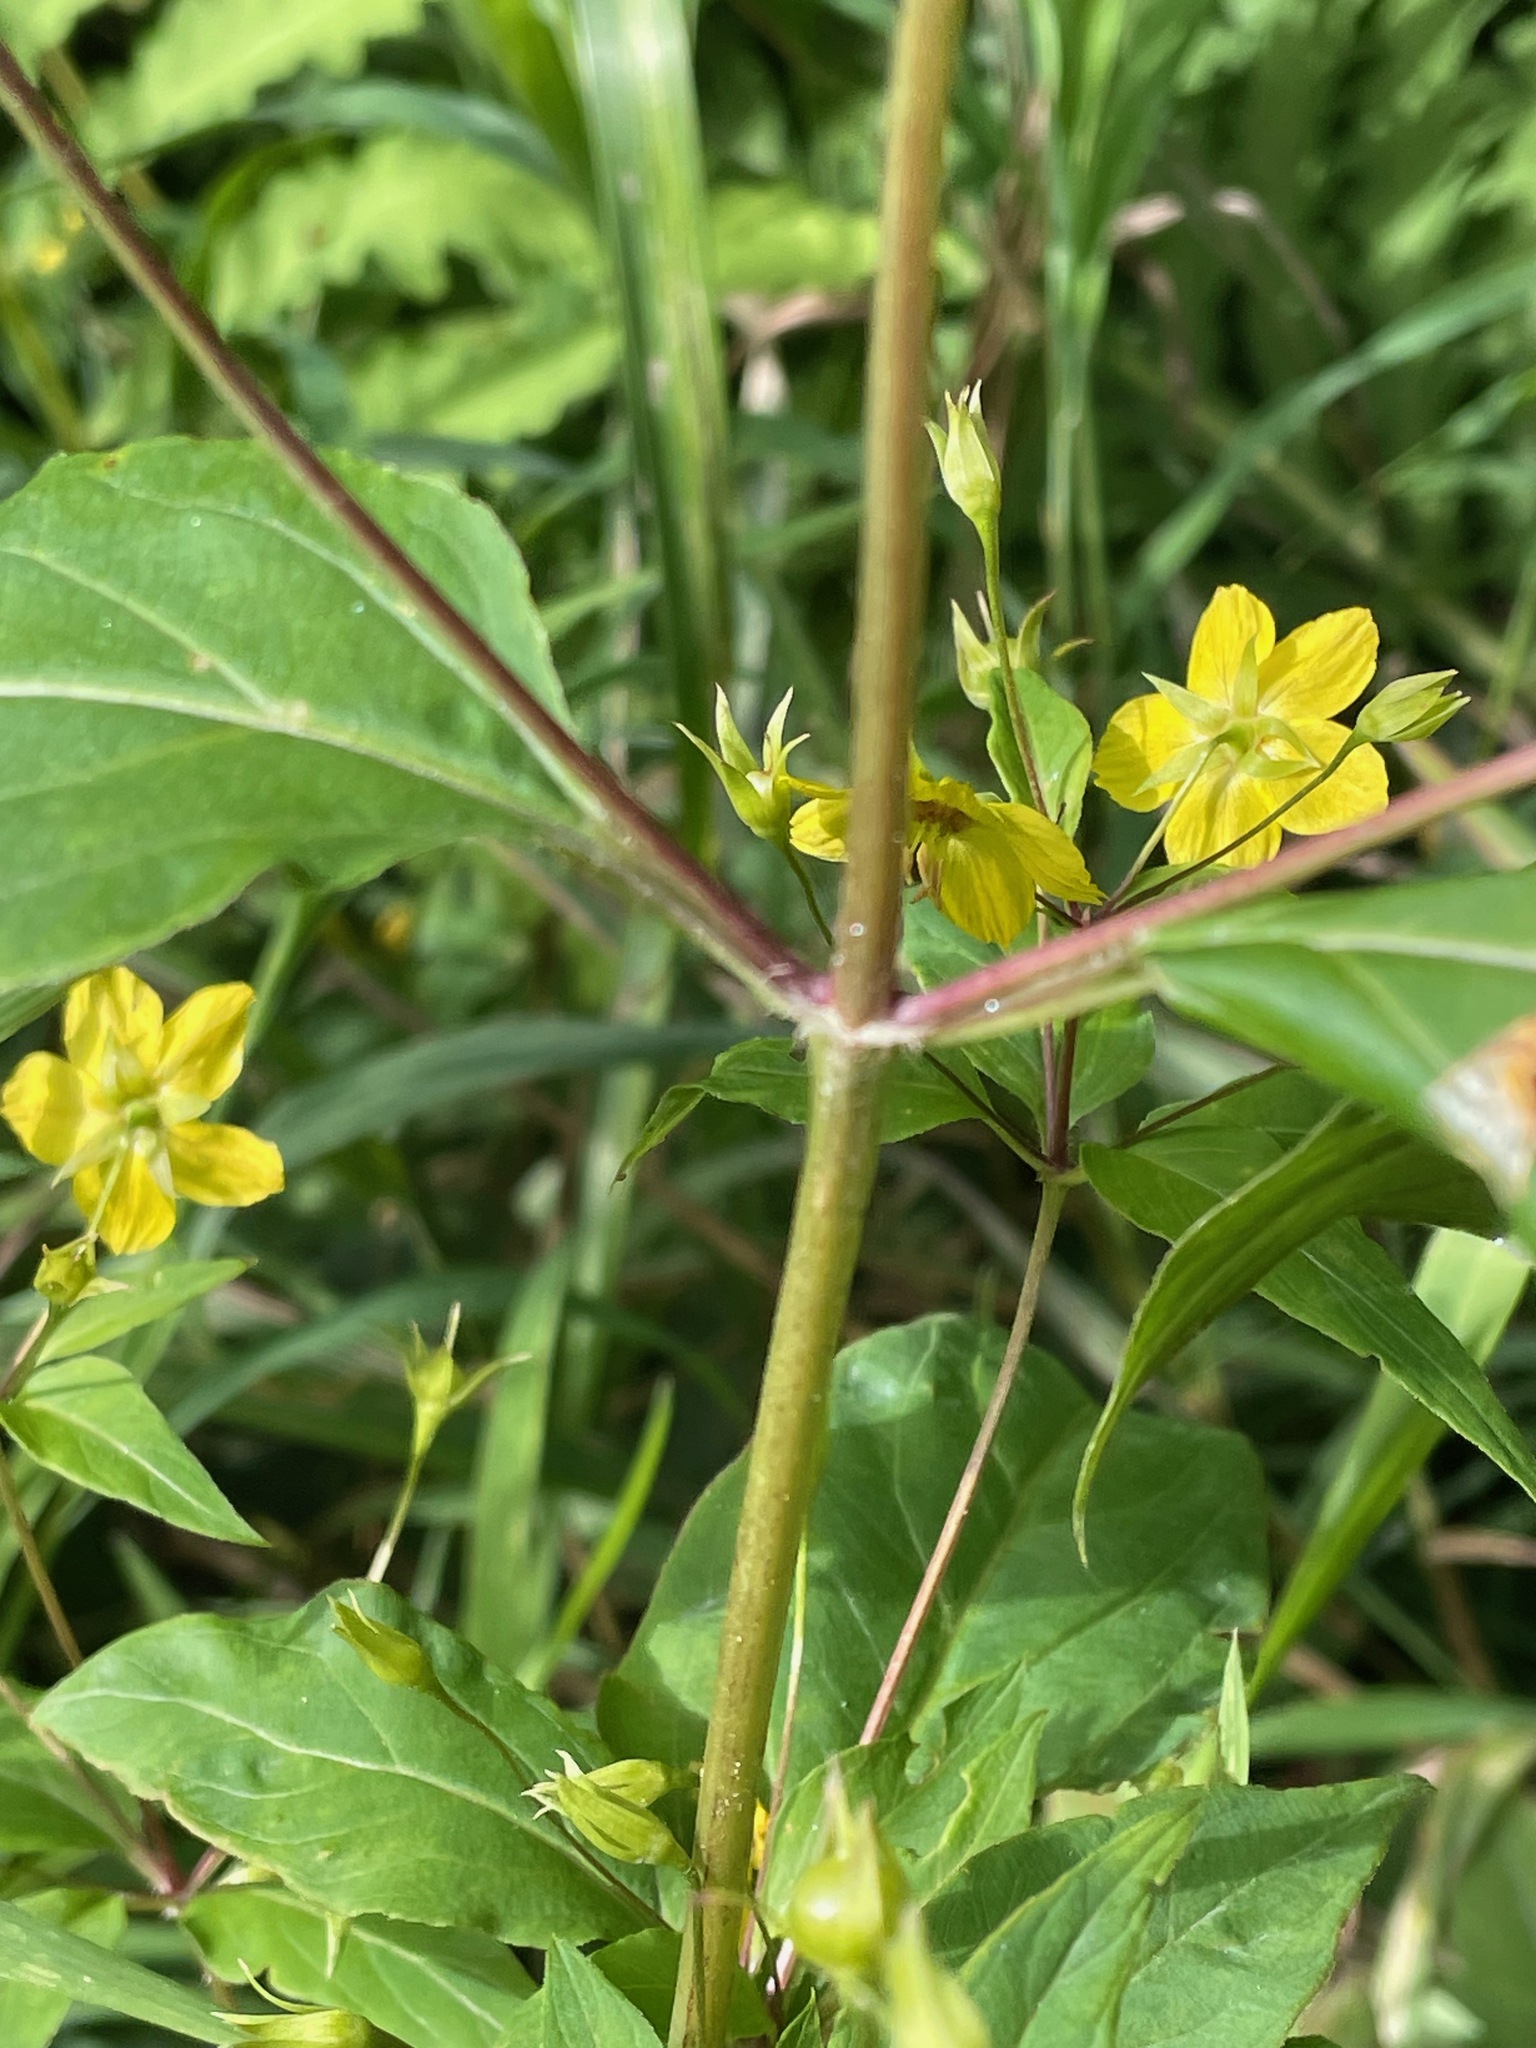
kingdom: Plantae
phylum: Tracheophyta
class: Magnoliopsida
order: Ericales
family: Primulaceae
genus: Lysimachia
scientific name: Lysimachia ciliata
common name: Fringed loosestrife
